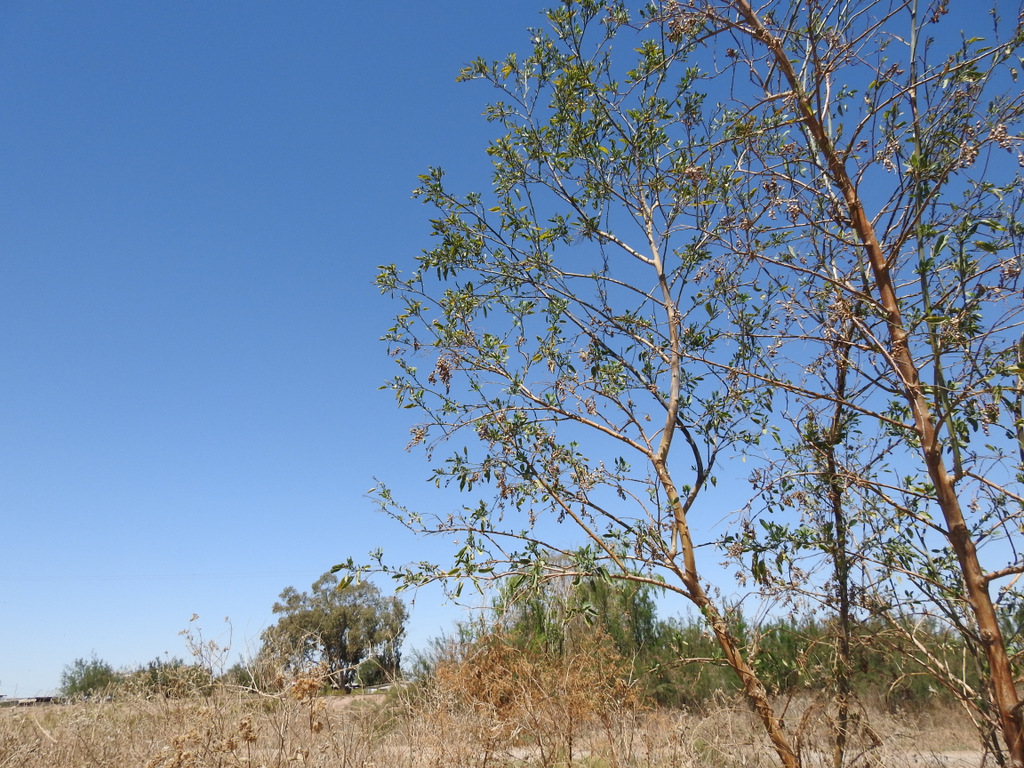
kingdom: Plantae
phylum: Tracheophyta
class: Magnoliopsida
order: Solanales
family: Solanaceae
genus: Nicotiana
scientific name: Nicotiana glauca
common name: Tree tobacco
